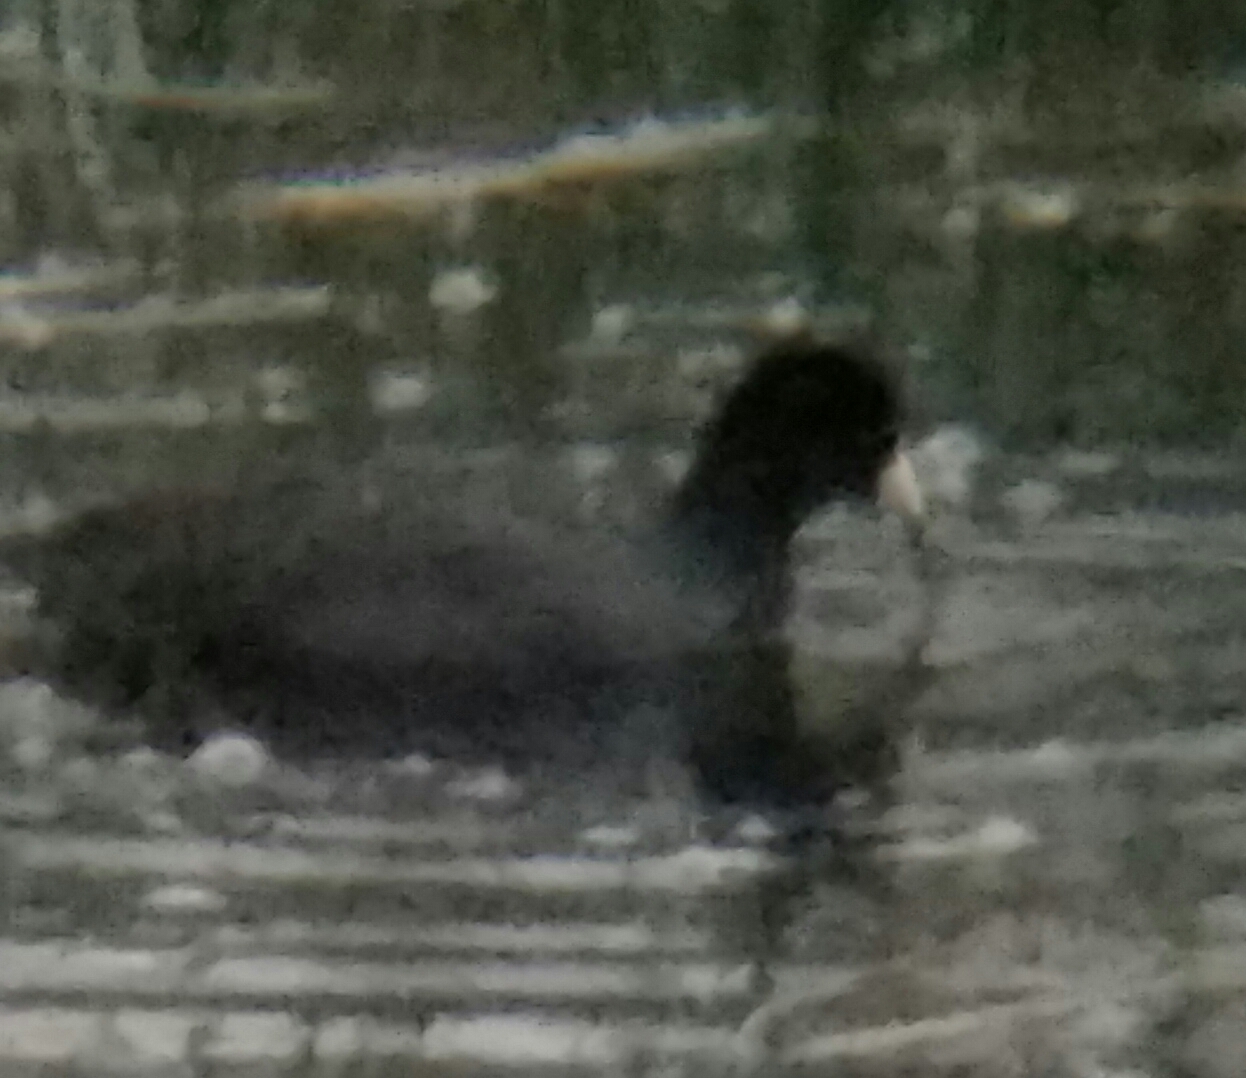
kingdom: Animalia
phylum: Chordata
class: Aves
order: Gruiformes
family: Rallidae
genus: Fulica
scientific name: Fulica americana
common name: American coot
